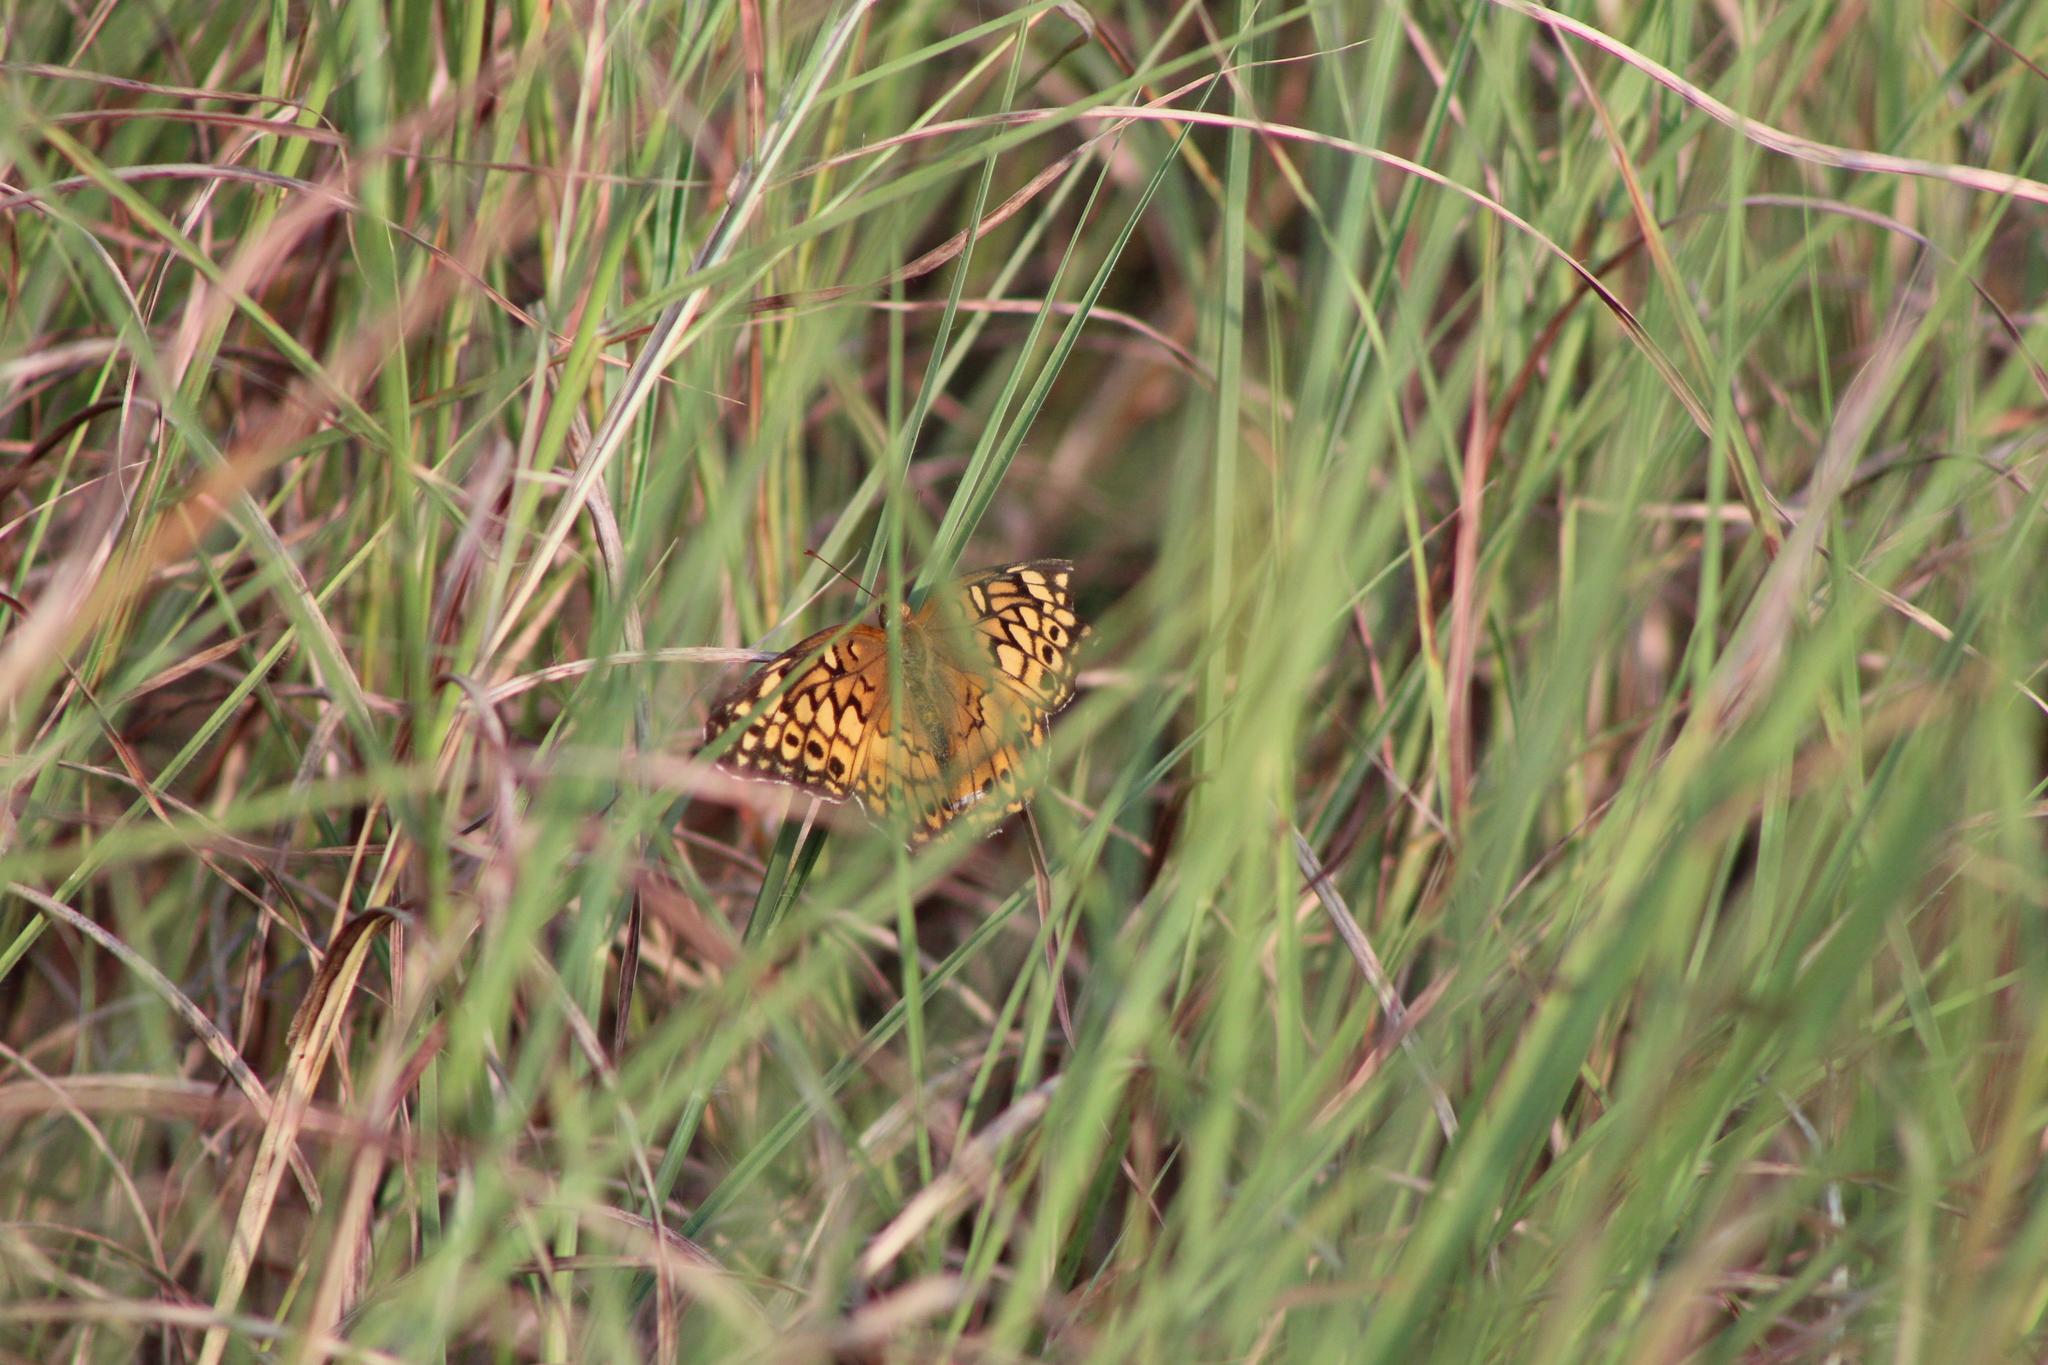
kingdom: Animalia
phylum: Arthropoda
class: Insecta
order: Lepidoptera
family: Nymphalidae
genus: Euptoieta
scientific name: Euptoieta claudia
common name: Variegated fritillary
